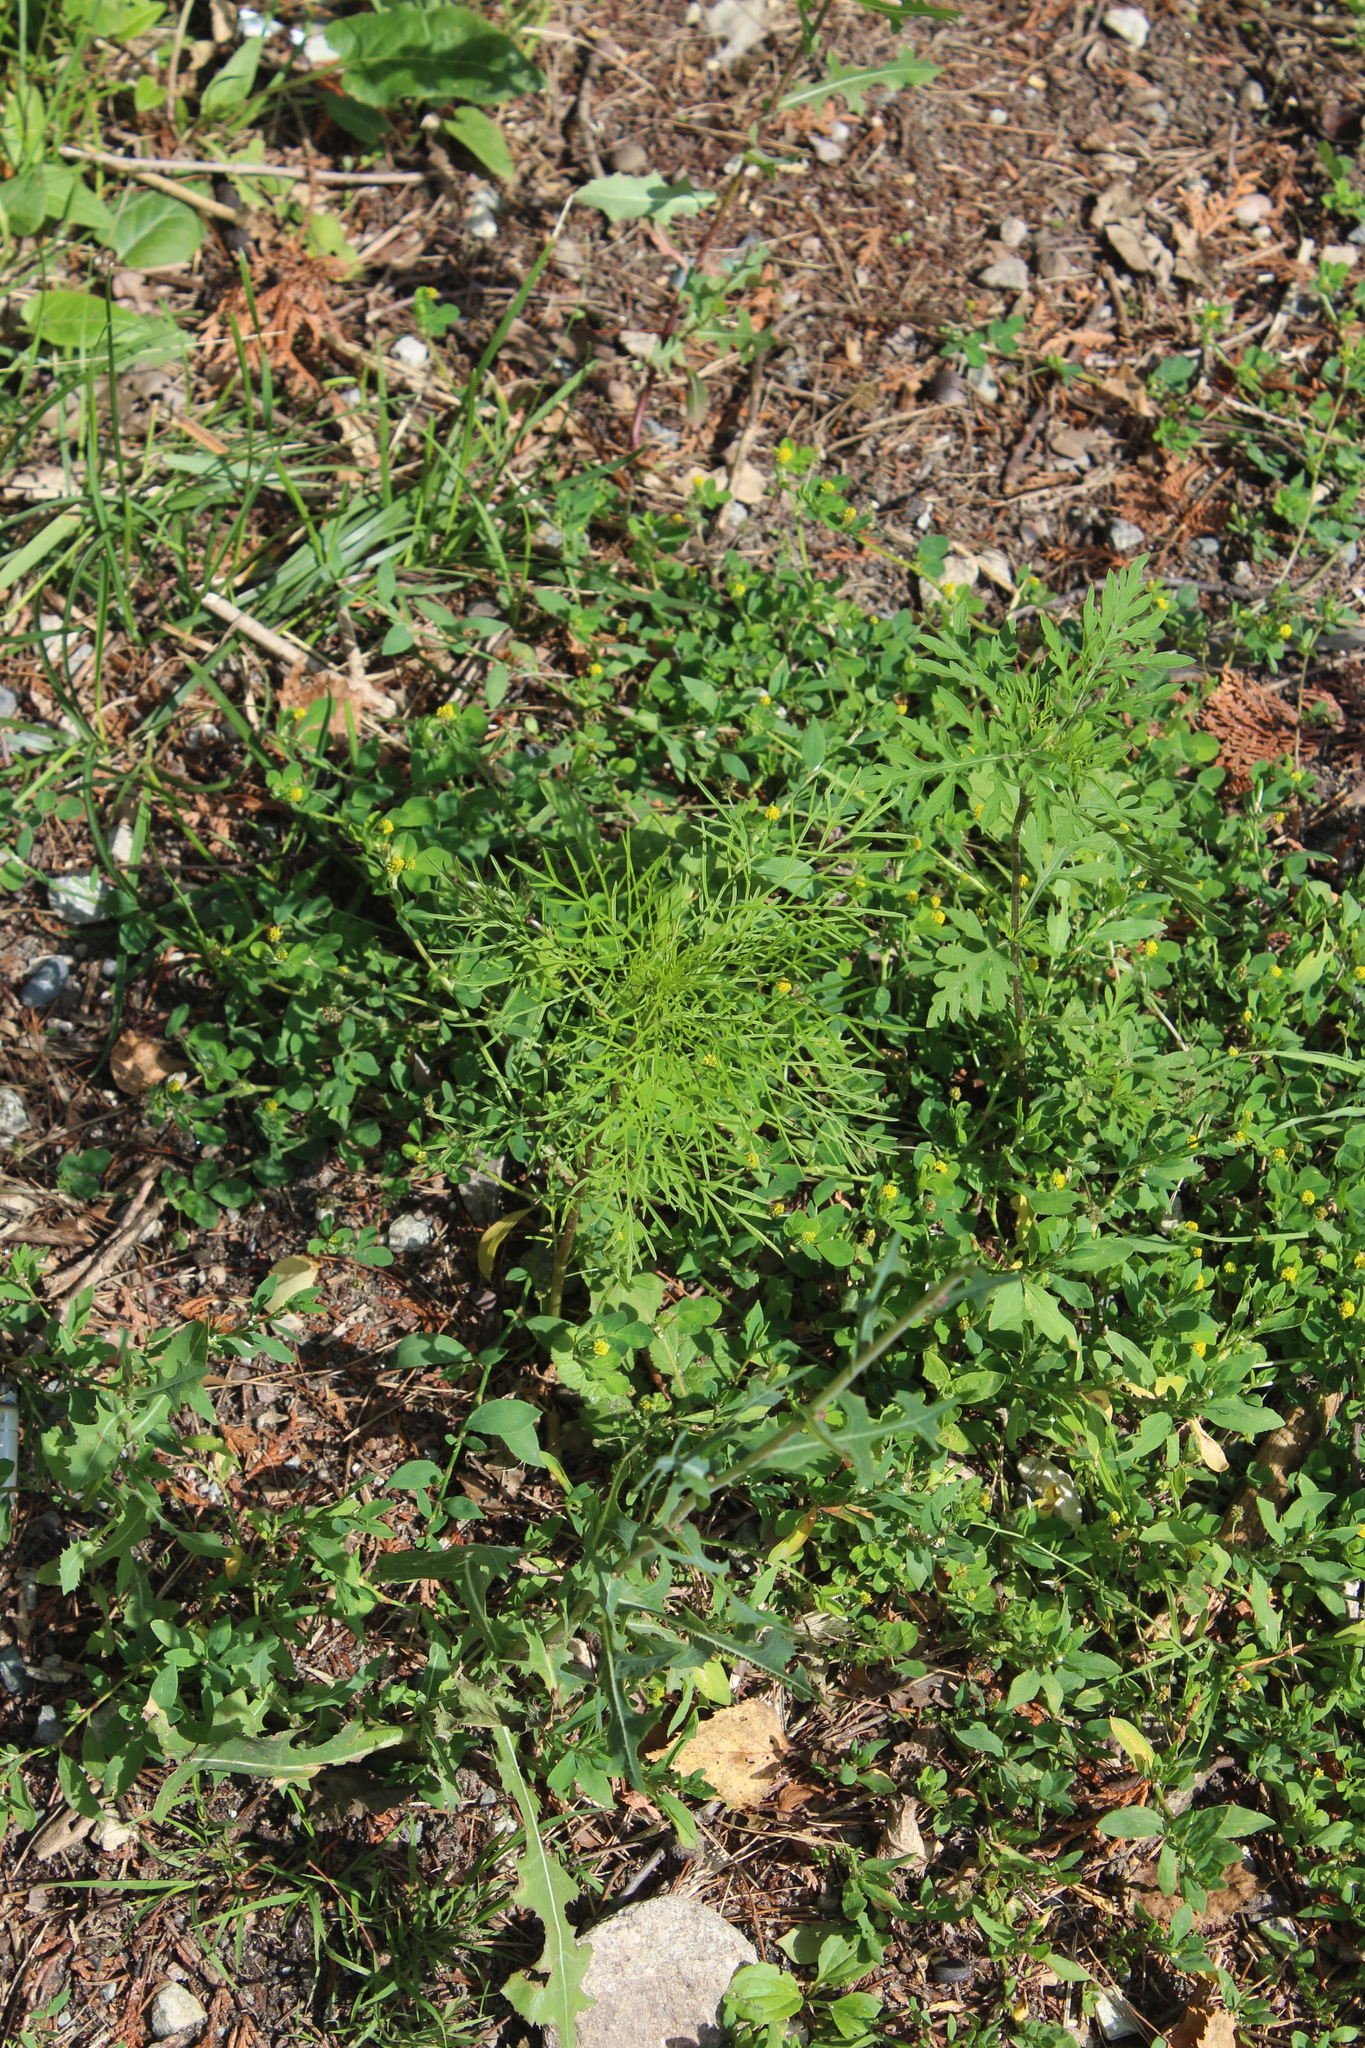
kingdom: Plantae
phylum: Tracheophyta
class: Magnoliopsida
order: Asterales
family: Asteraceae
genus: Cosmos
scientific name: Cosmos bipinnatus
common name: Garden cosmos
